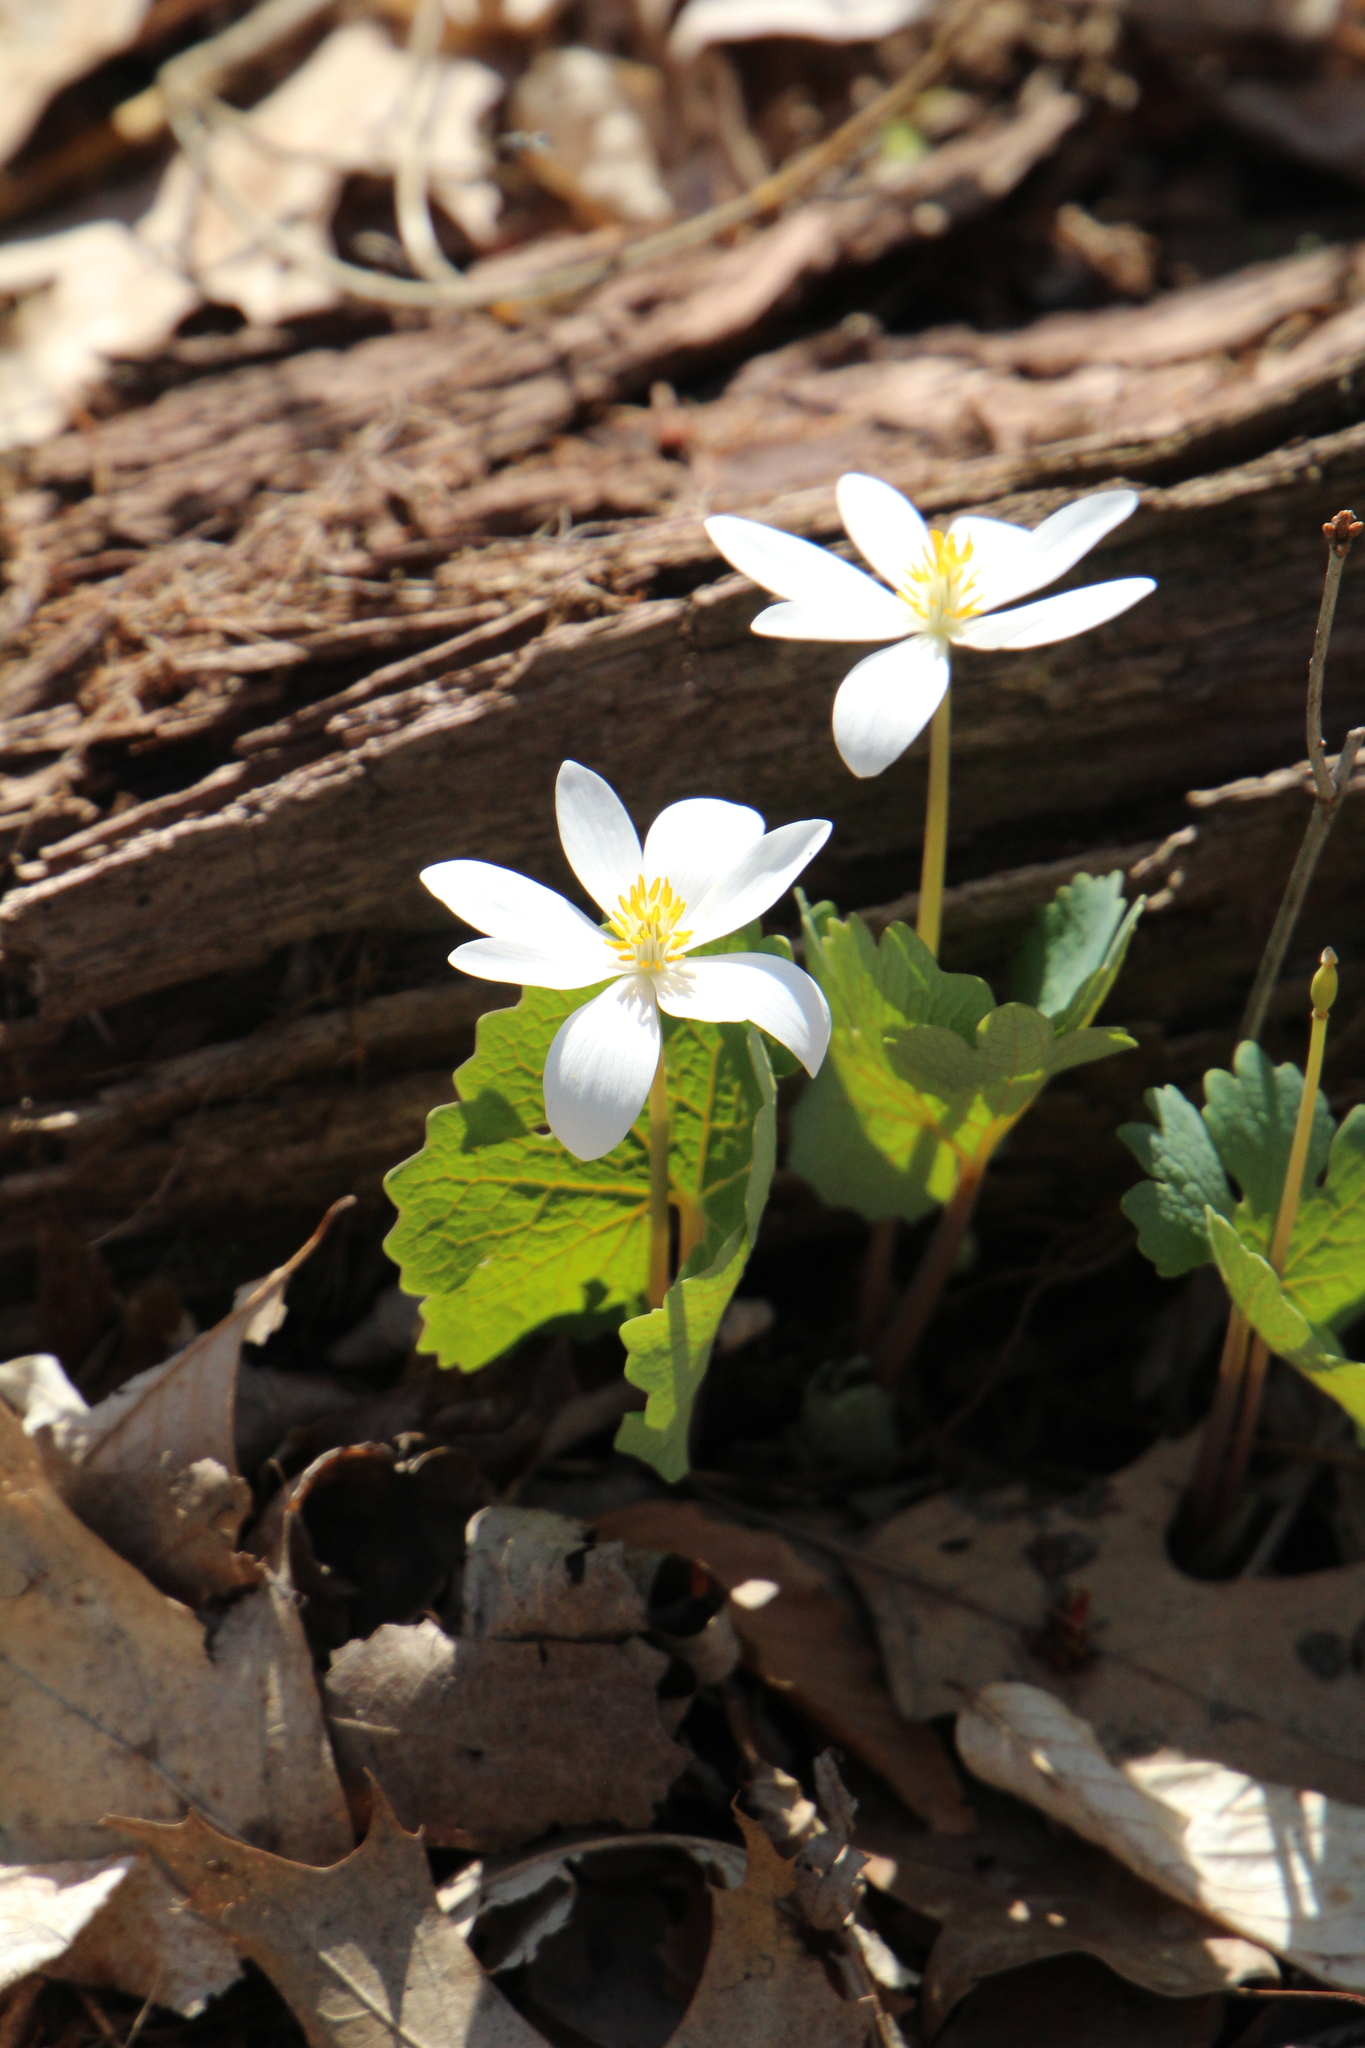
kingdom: Plantae
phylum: Tracheophyta
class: Magnoliopsida
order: Ranunculales
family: Papaveraceae
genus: Sanguinaria
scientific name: Sanguinaria canadensis
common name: Bloodroot
